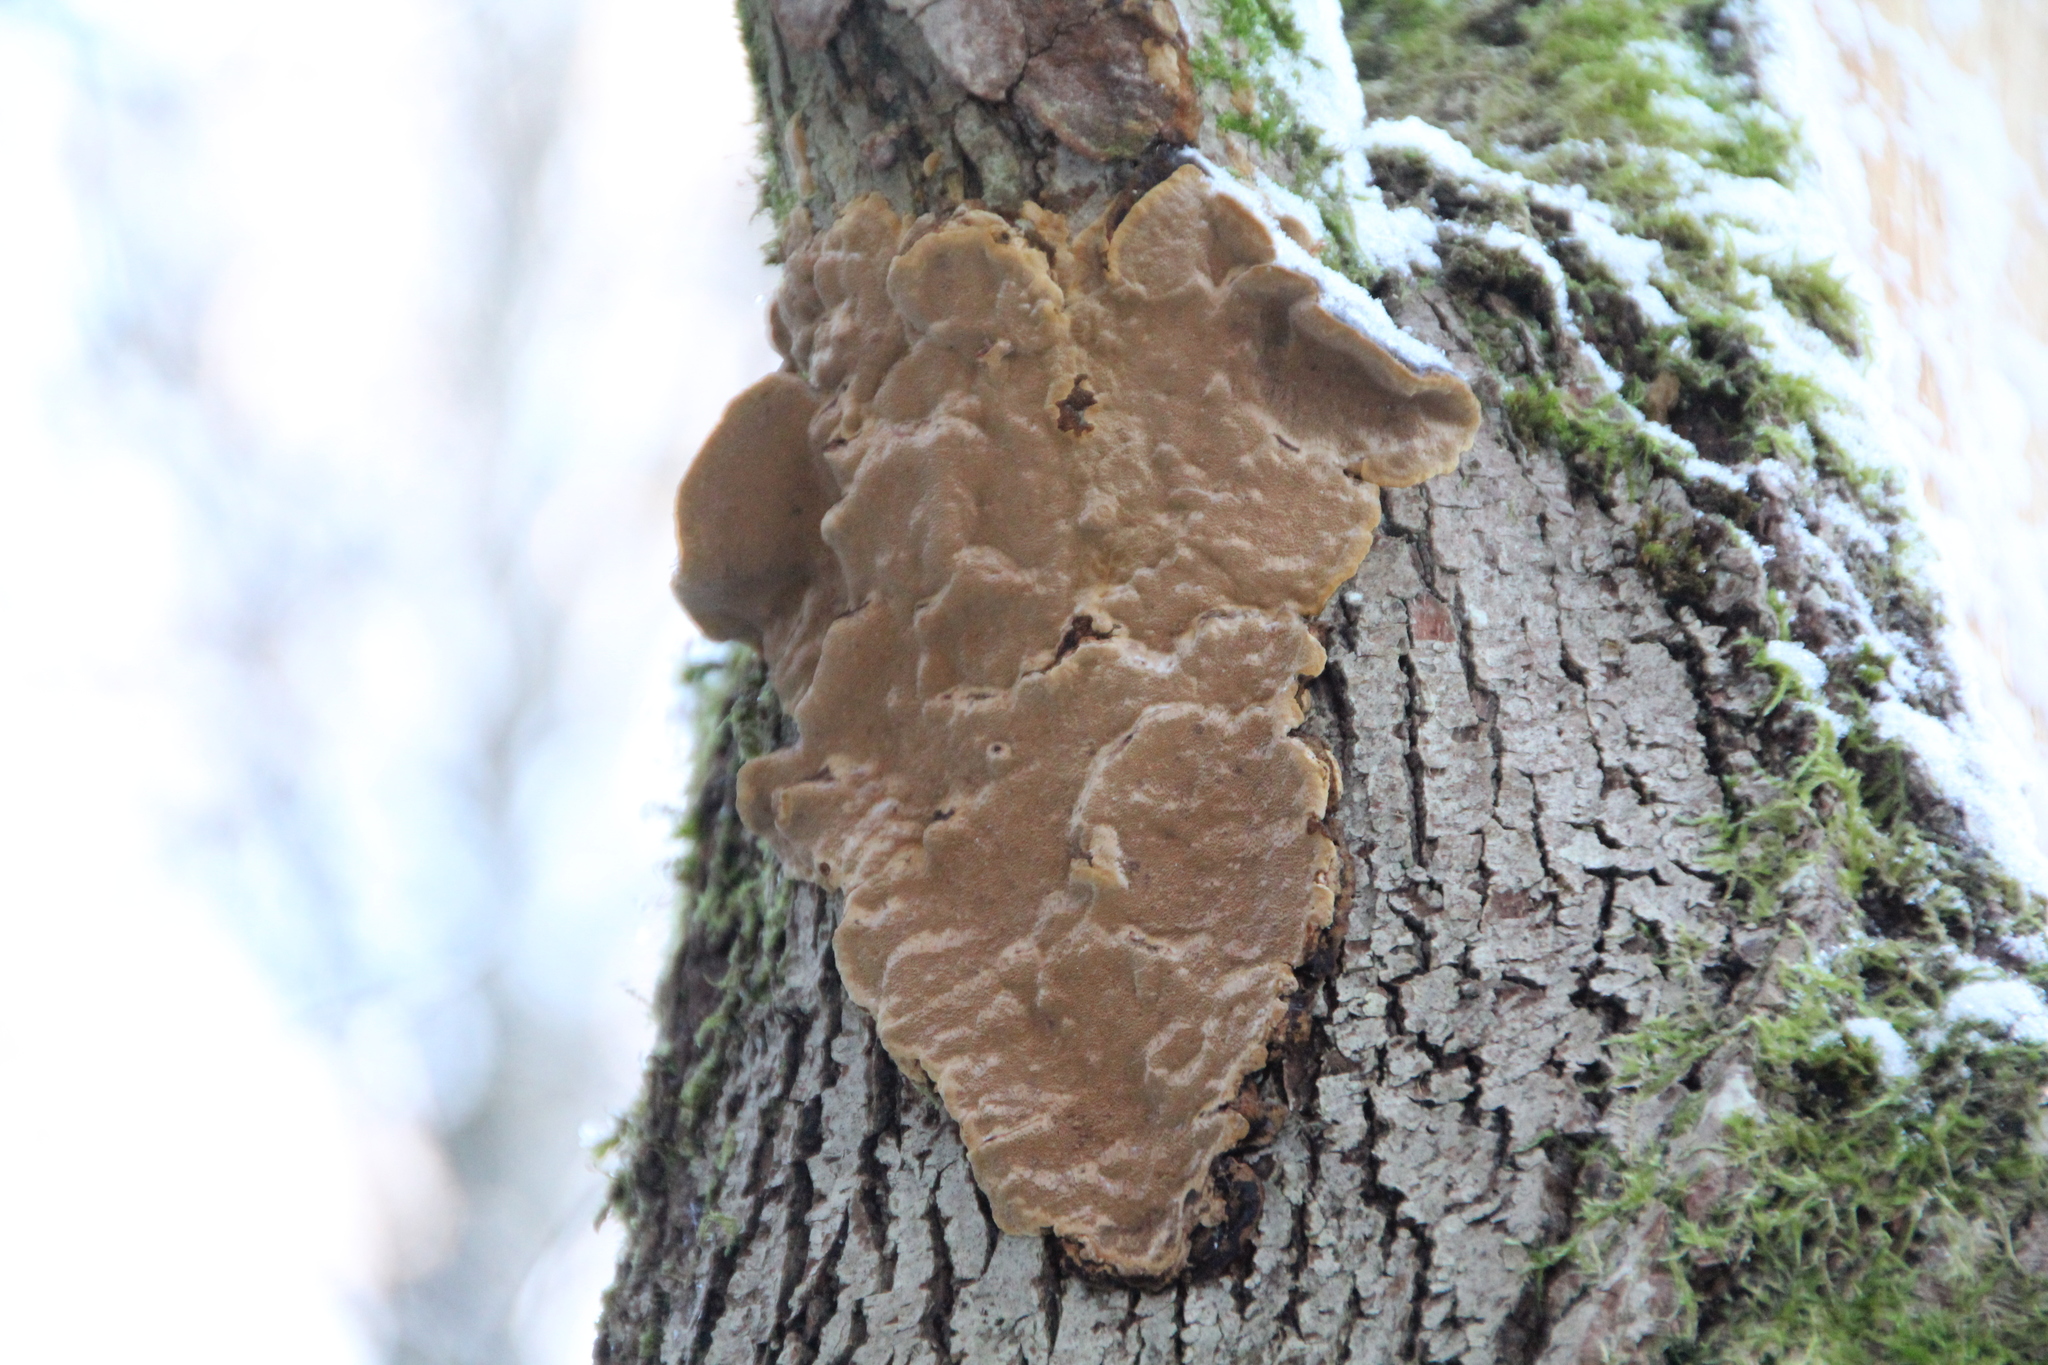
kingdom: Fungi
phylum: Basidiomycota
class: Agaricomycetes
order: Hymenochaetales
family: Hymenochaetaceae
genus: Phellinopsis
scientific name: Phellinopsis conchata
